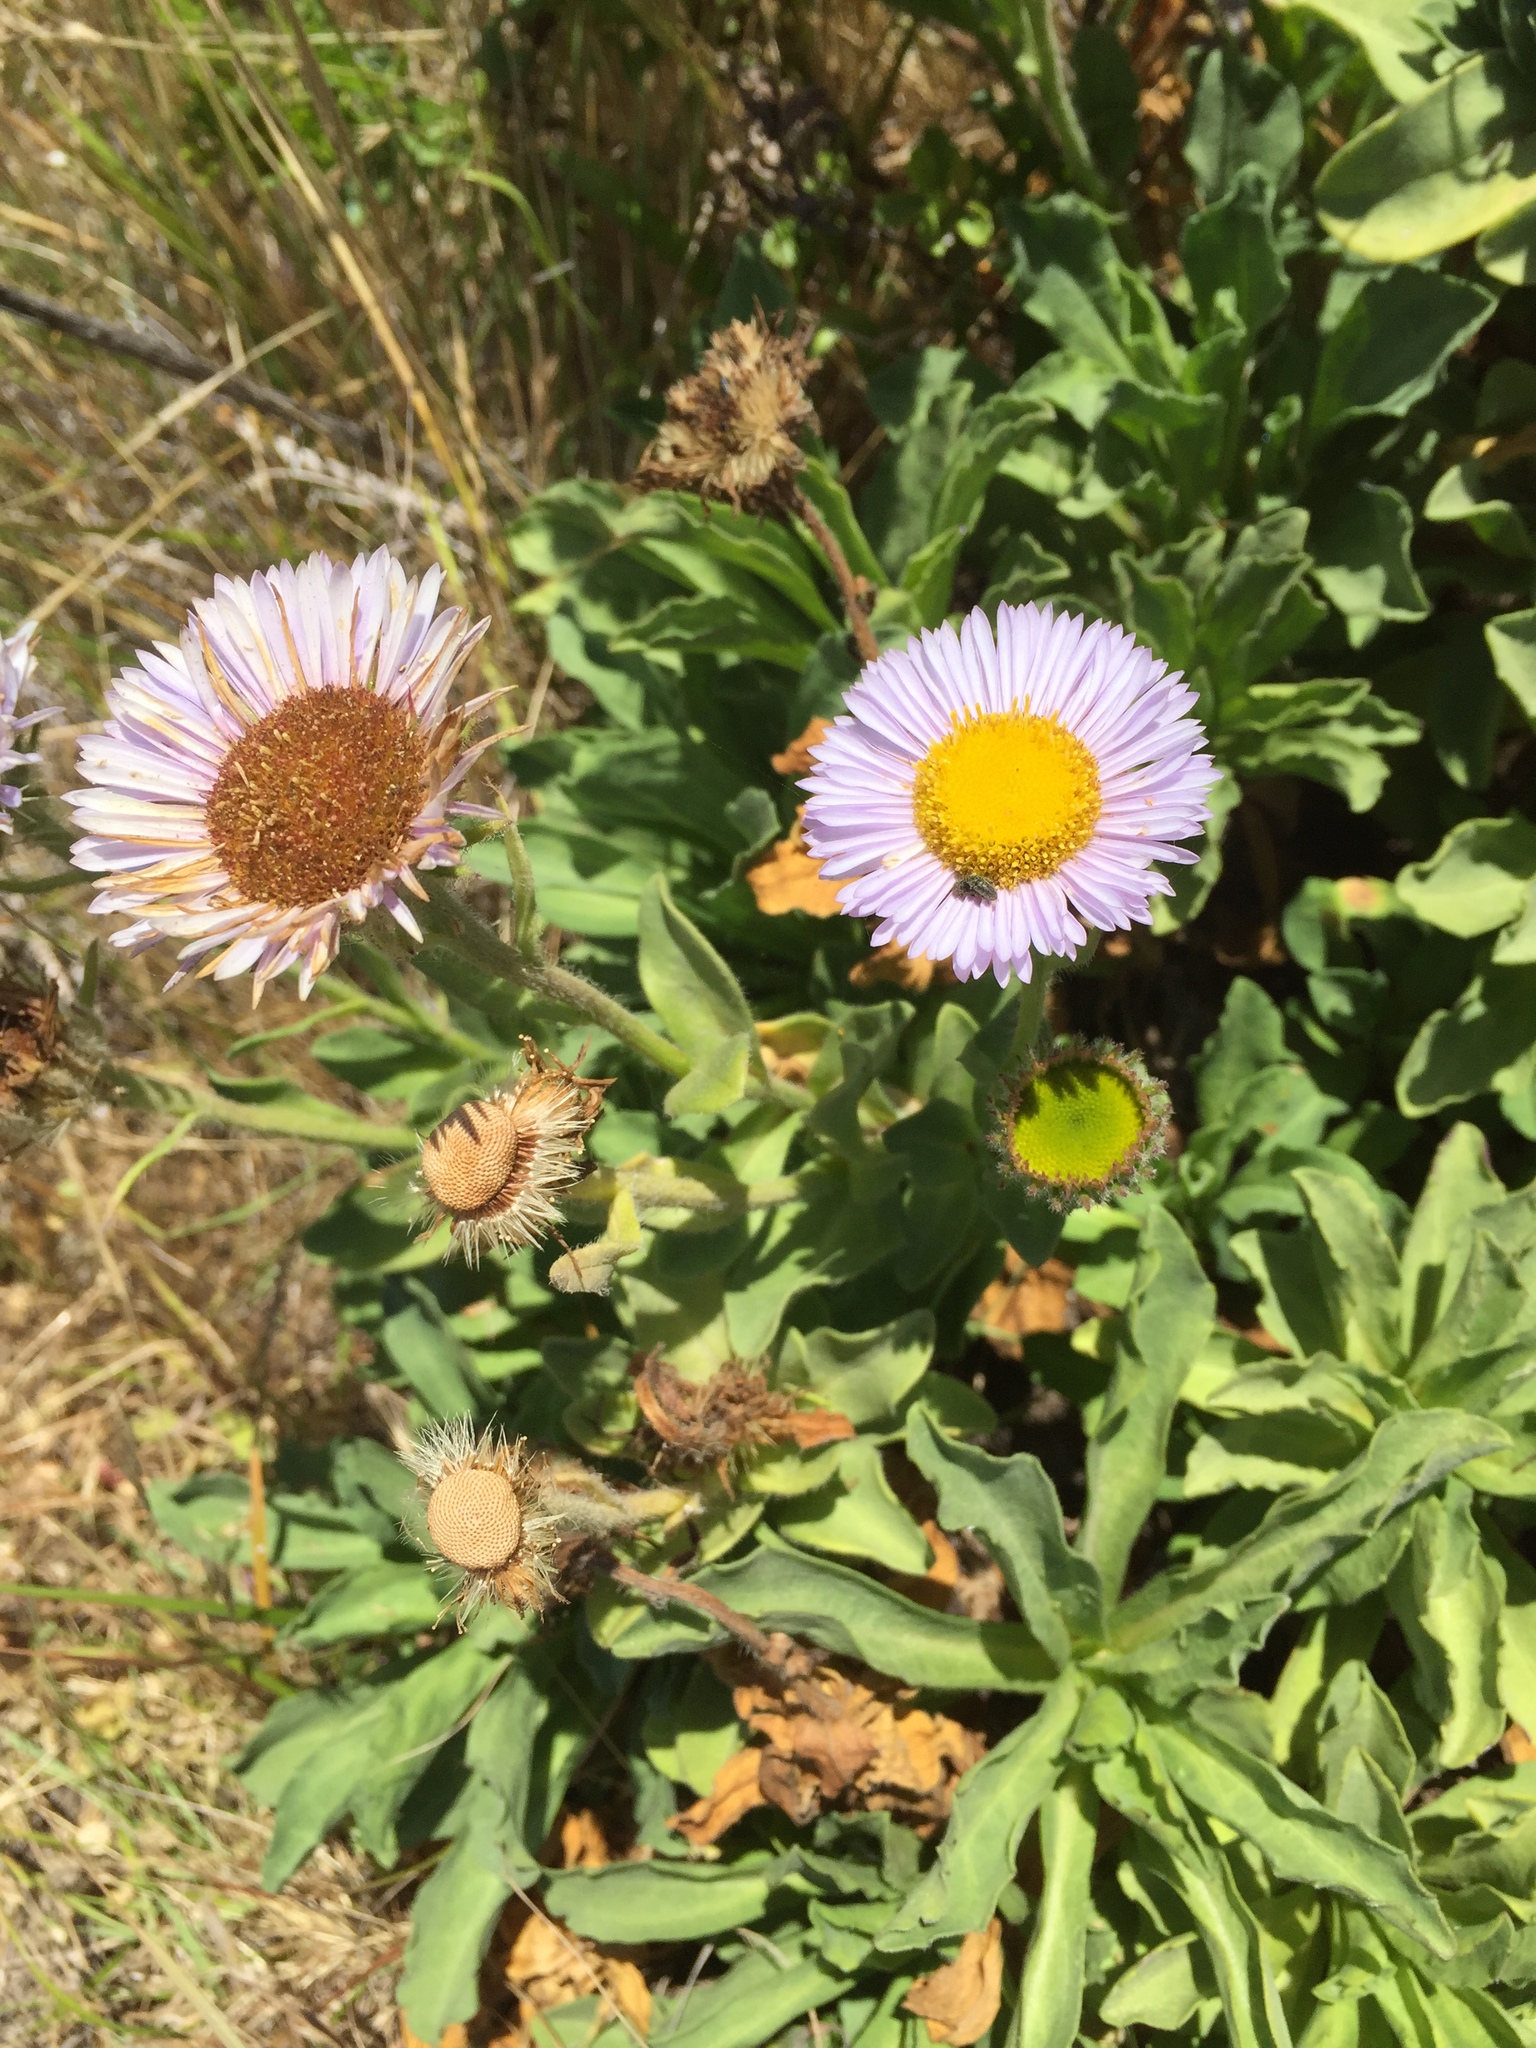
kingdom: Plantae
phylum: Tracheophyta
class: Magnoliopsida
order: Asterales
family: Asteraceae
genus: Erigeron
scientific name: Erigeron glaucus
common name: Seaside daisy
